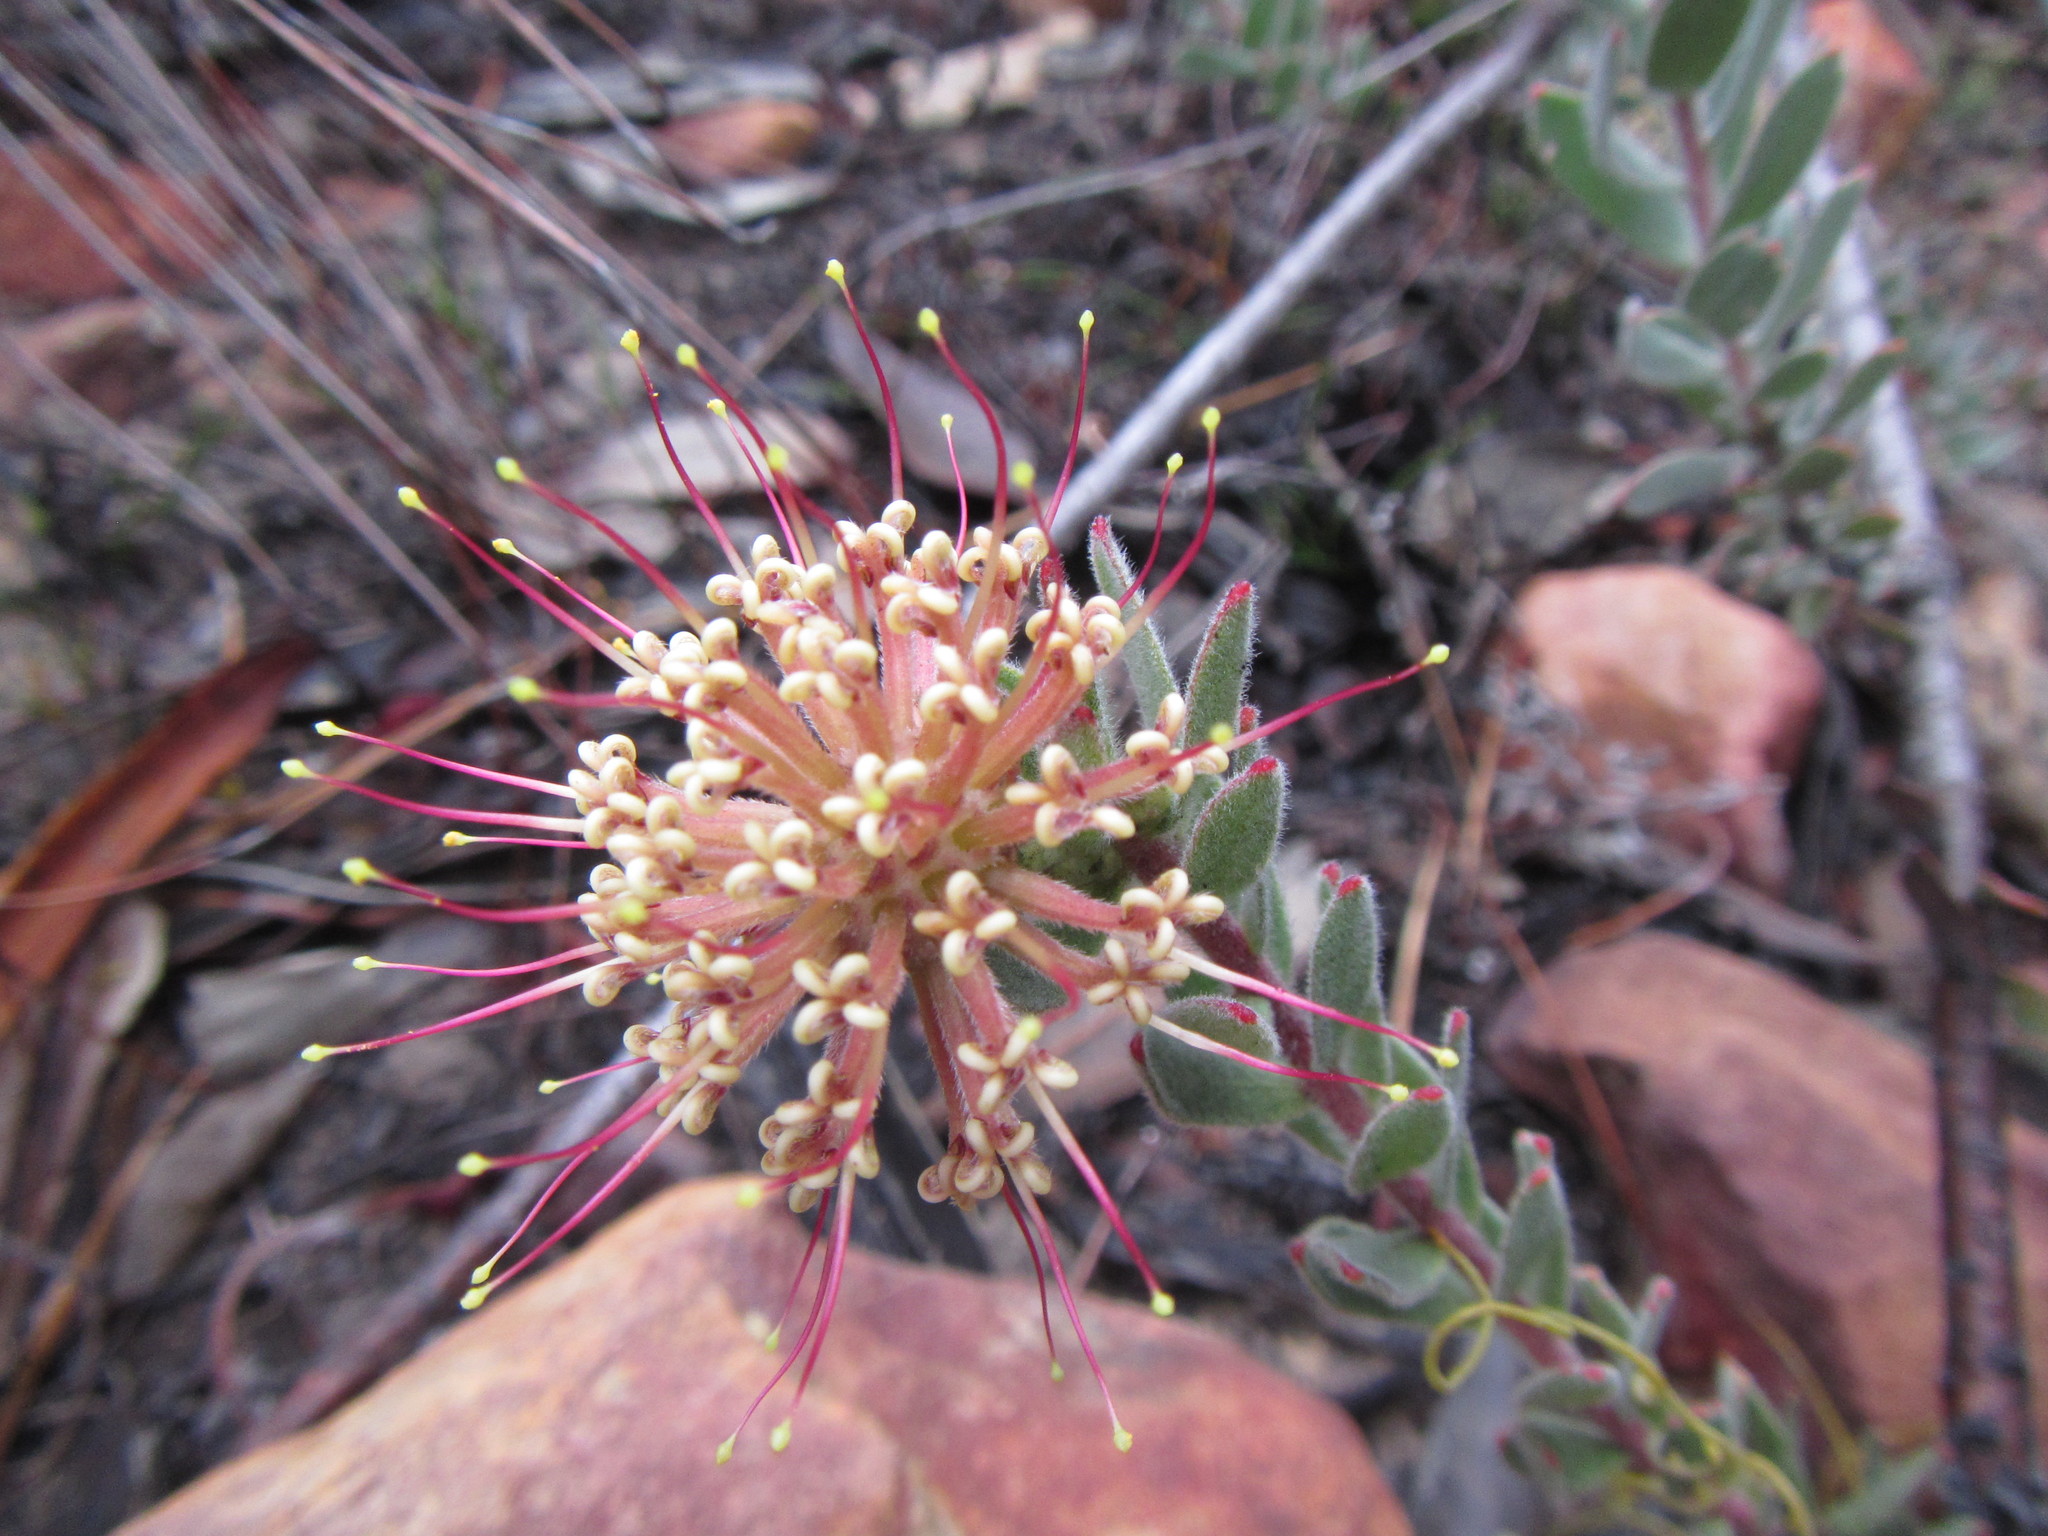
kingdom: Plantae
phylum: Tracheophyta
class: Magnoliopsida
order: Proteales
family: Proteaceae
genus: Leucospermum
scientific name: Leucospermum calligerum
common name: Arid pincushion
